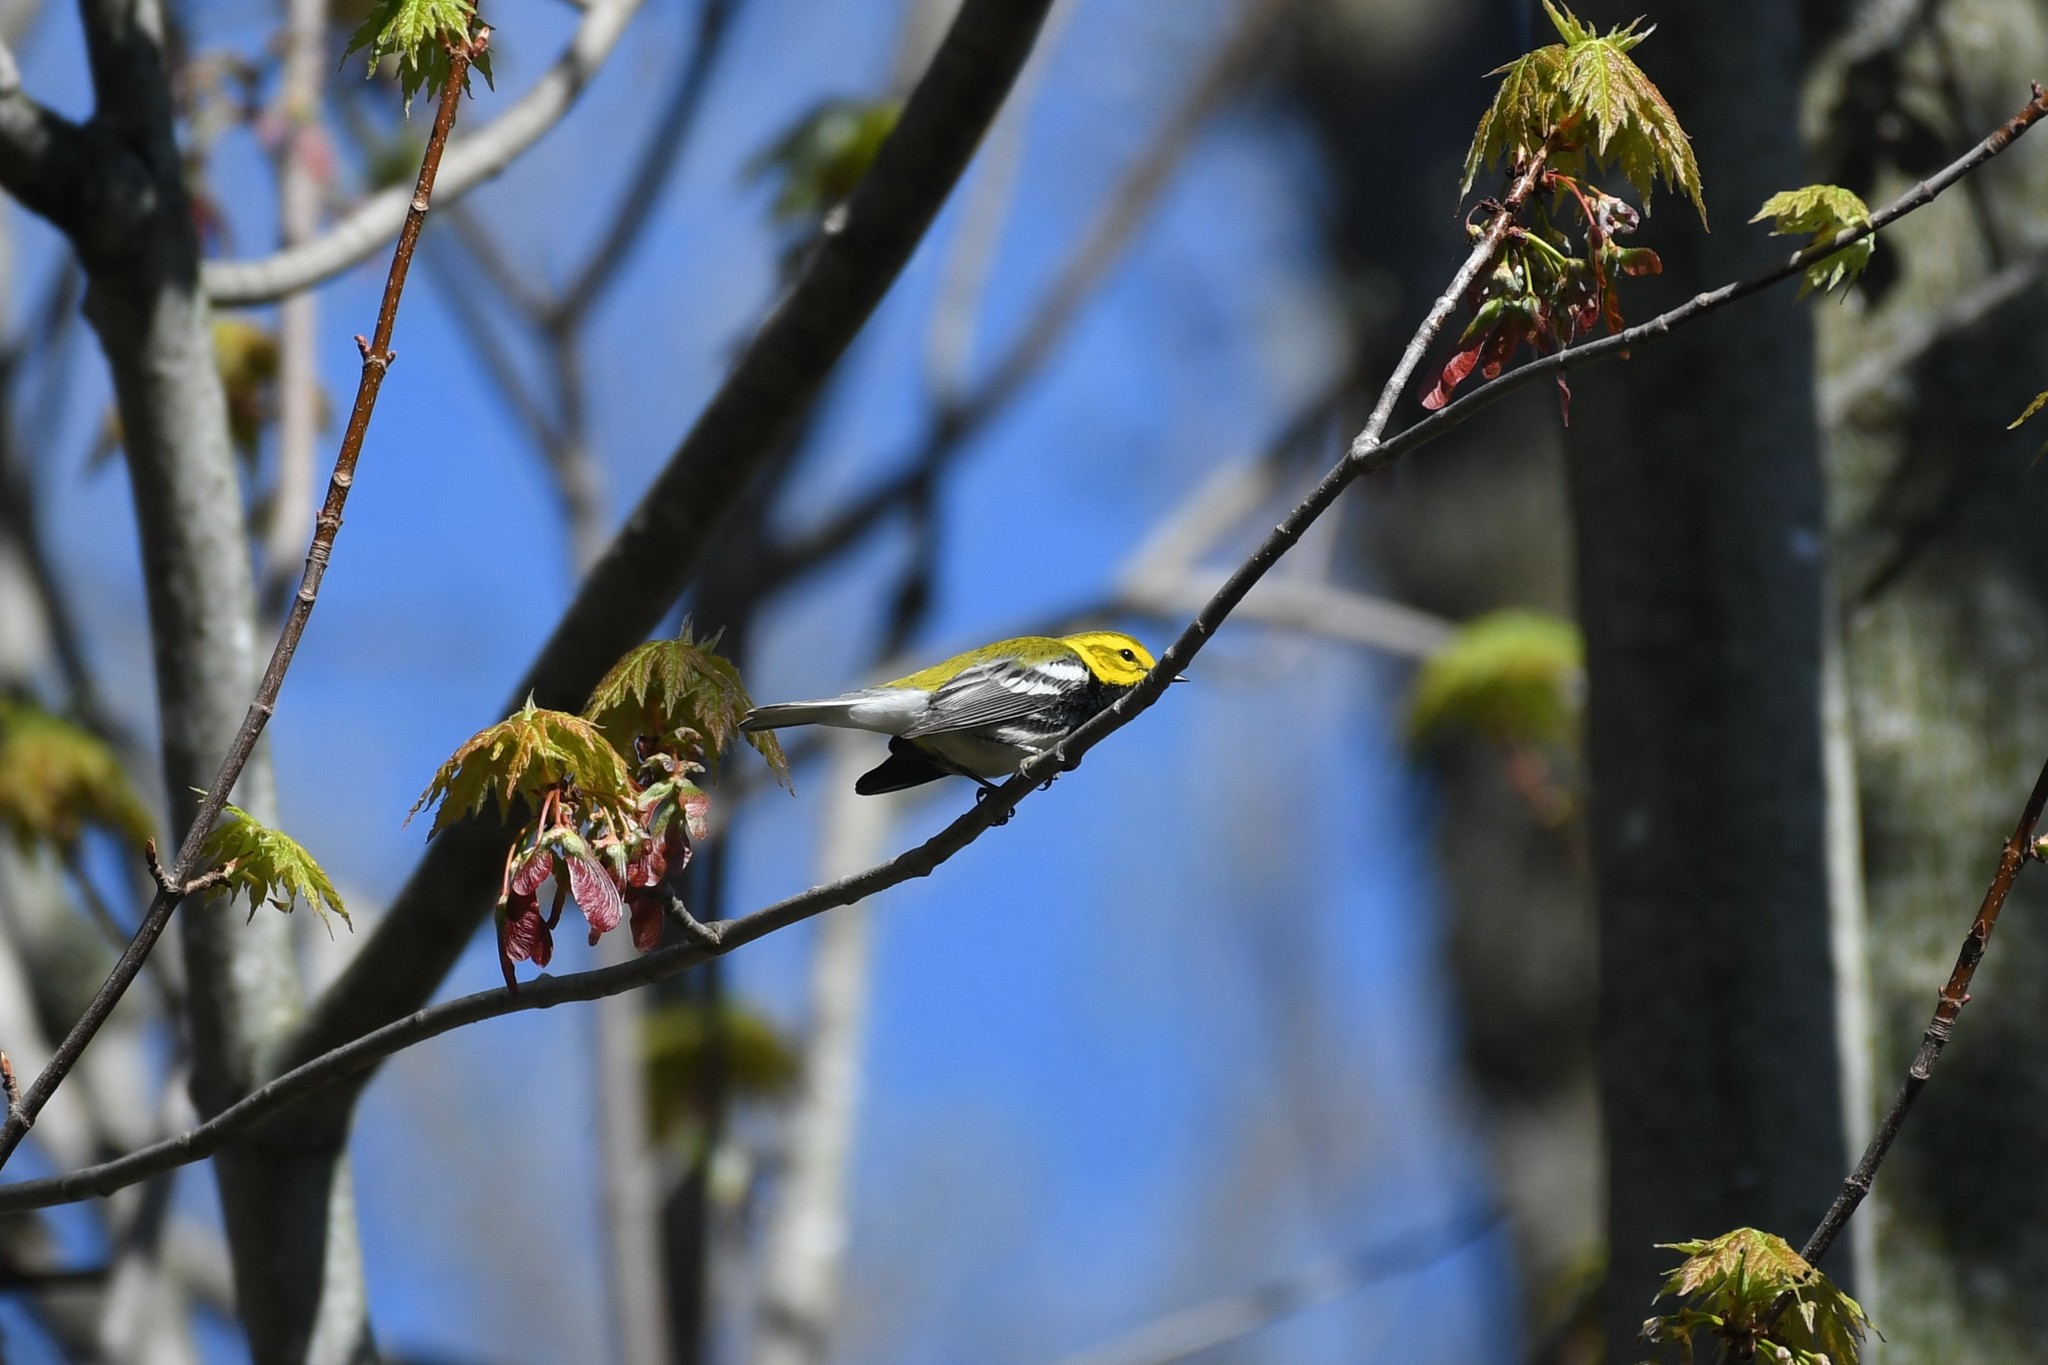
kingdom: Animalia
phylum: Chordata
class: Aves
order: Passeriformes
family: Parulidae
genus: Setophaga
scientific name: Setophaga virens
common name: Black-throated green warbler
